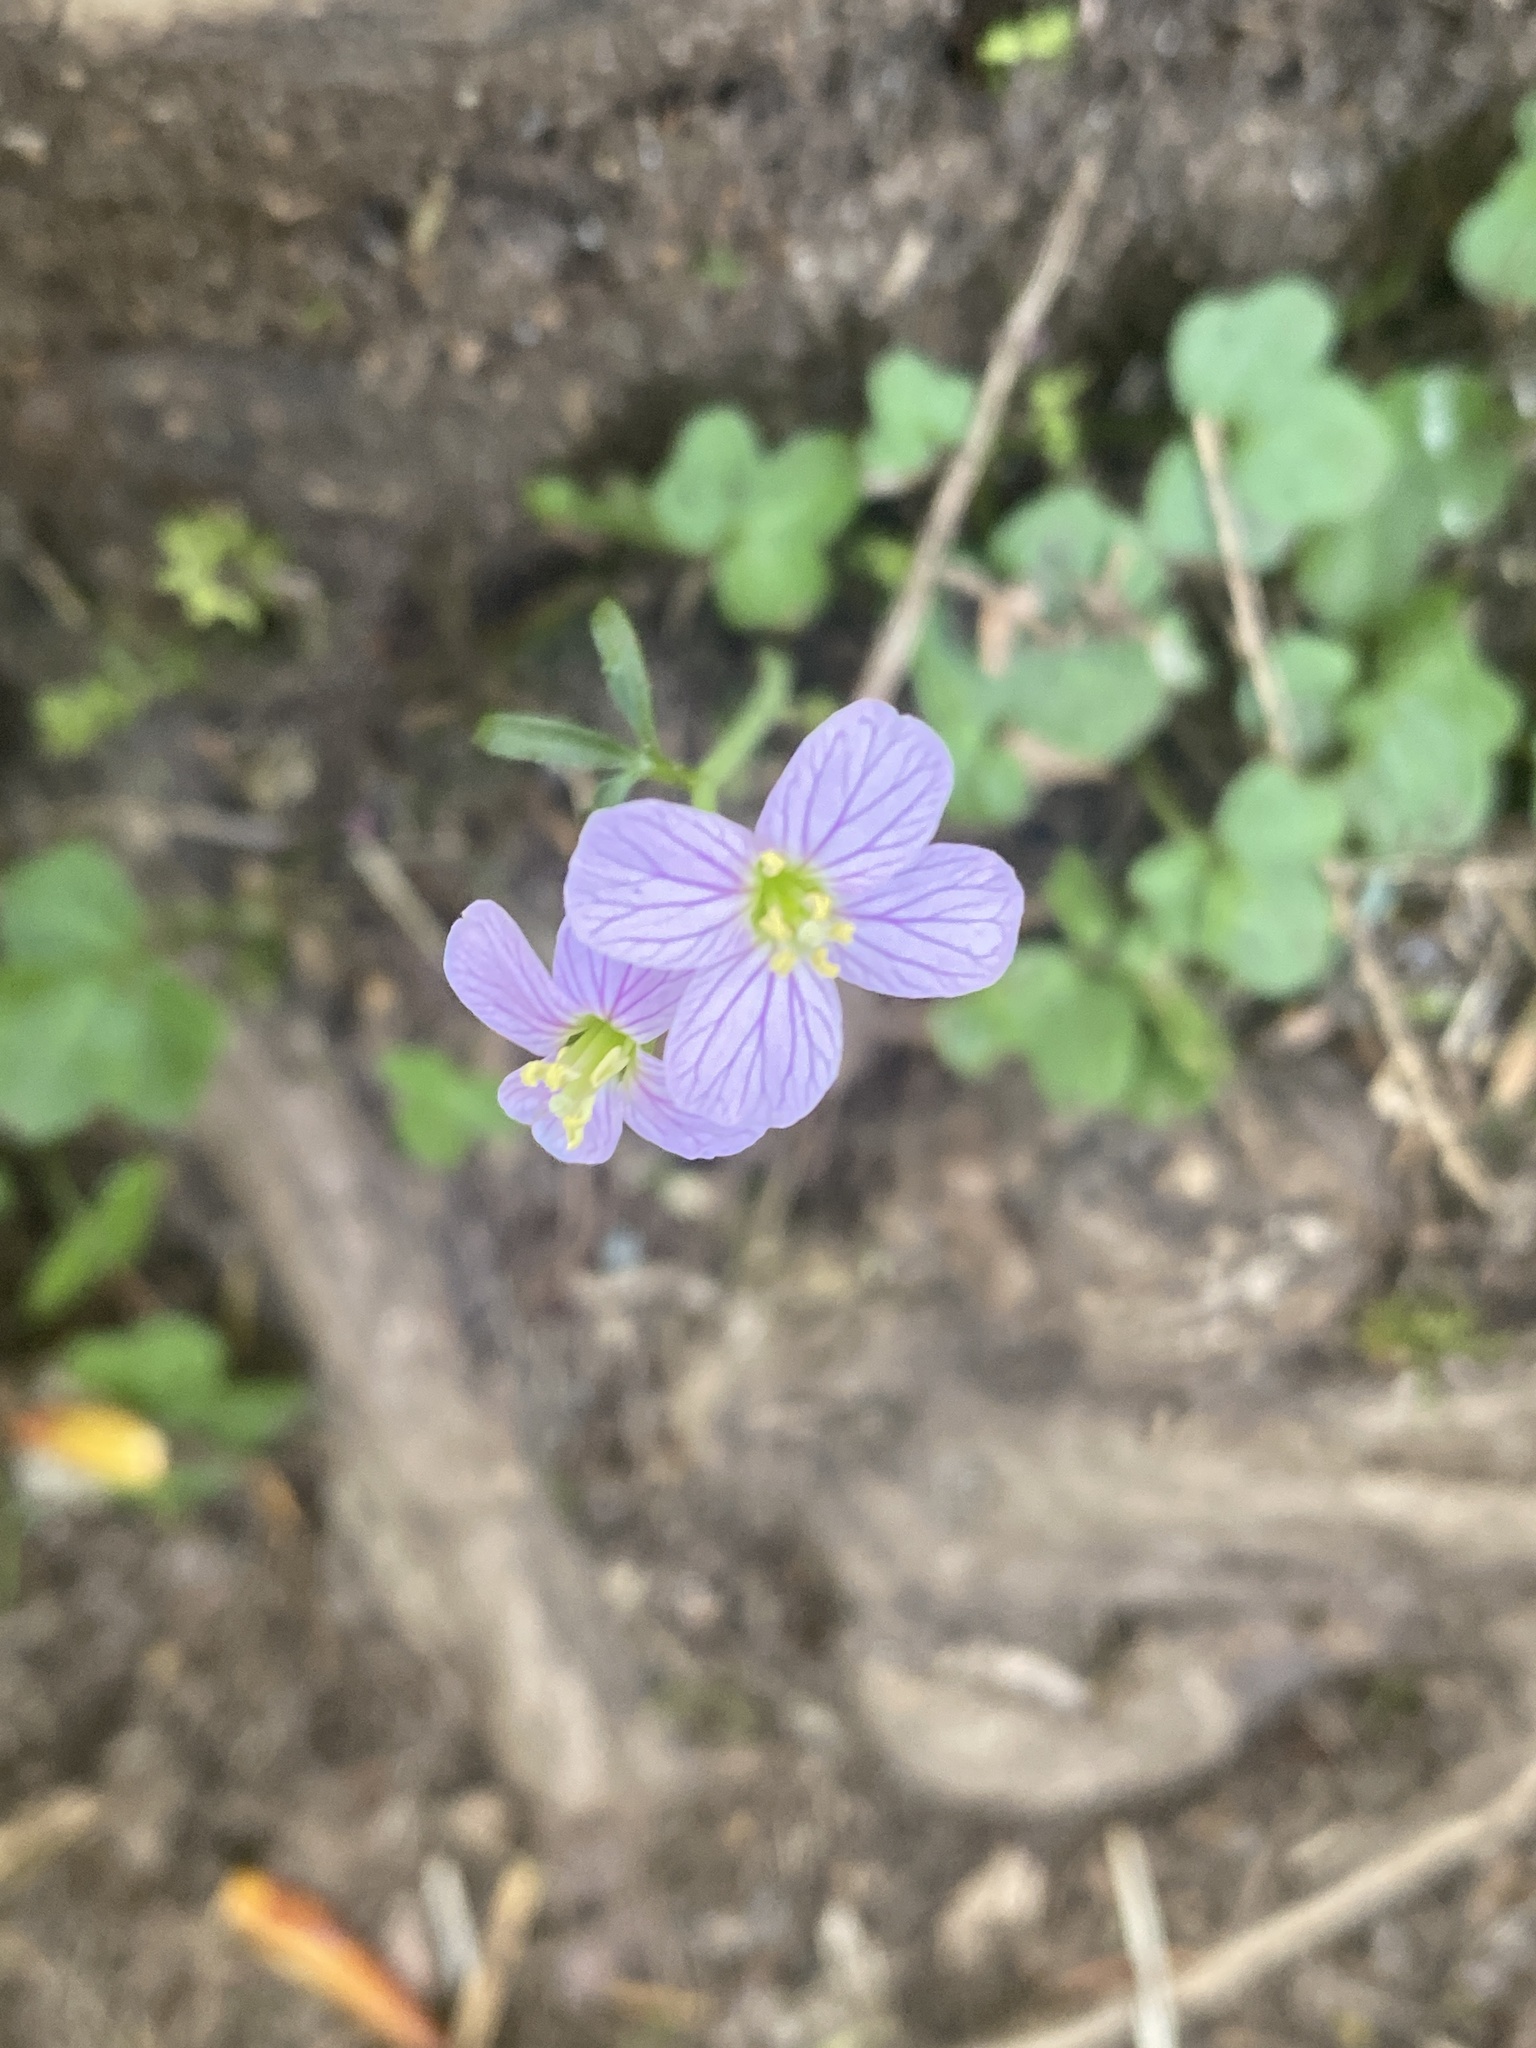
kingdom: Plantae
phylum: Tracheophyta
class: Magnoliopsida
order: Brassicales
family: Brassicaceae
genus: Cardamine
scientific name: Cardamine nuttallii
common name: Nuttall's toothwort
